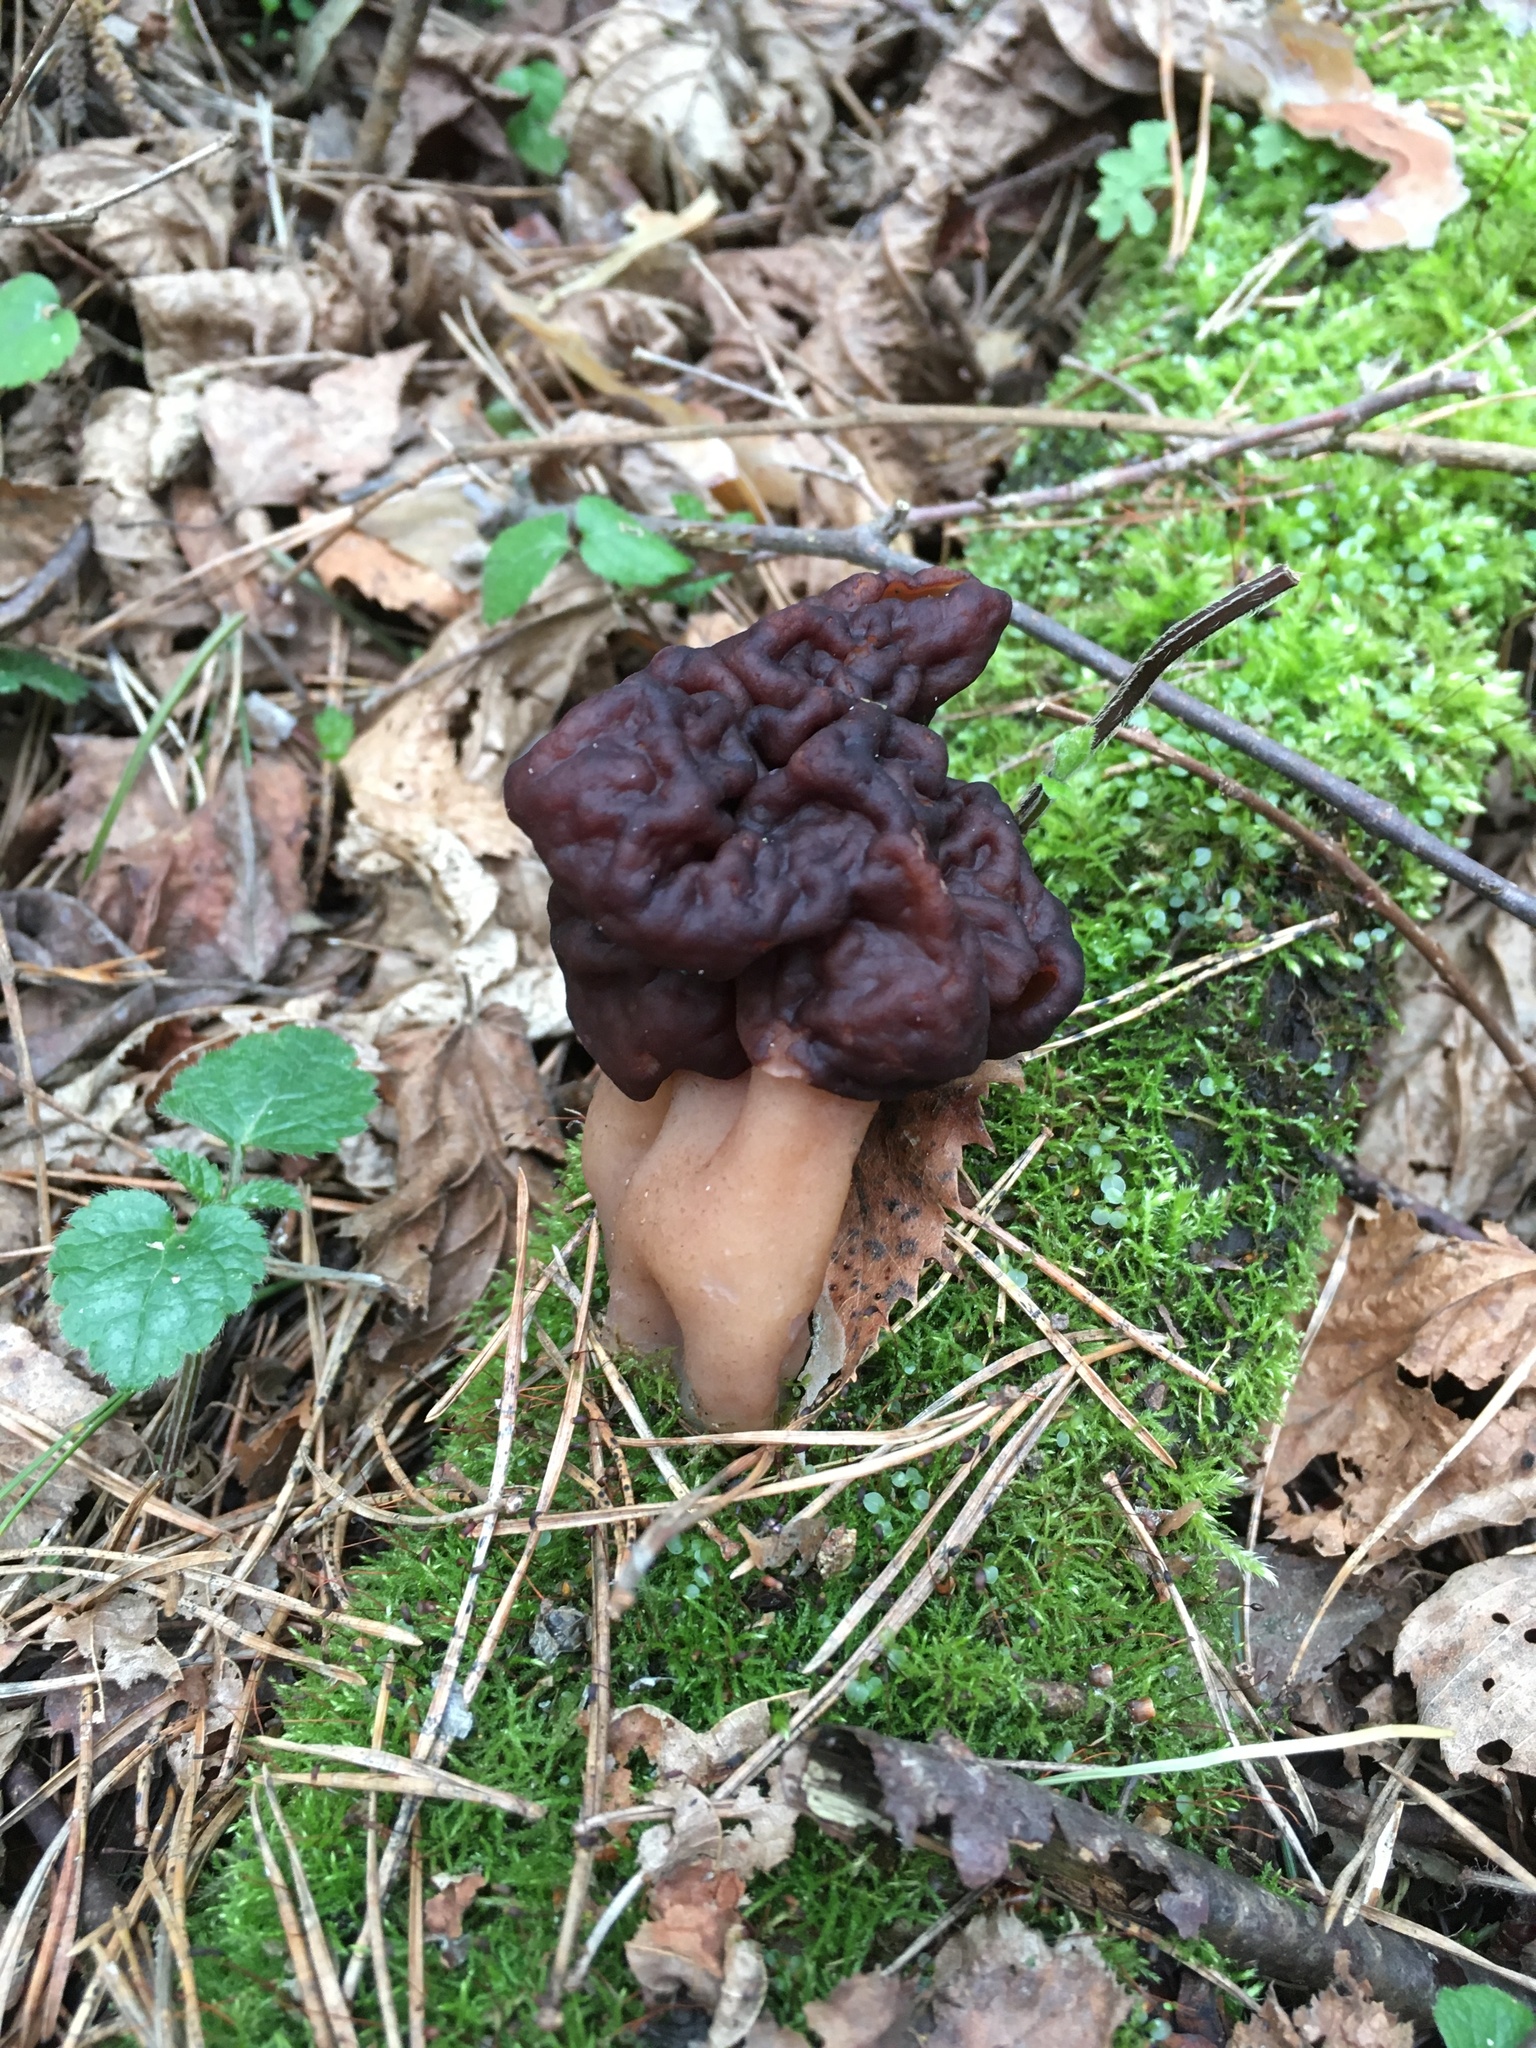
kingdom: Fungi
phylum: Ascomycota
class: Pezizomycetes
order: Pezizales
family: Discinaceae
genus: Gyromitra
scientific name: Gyromitra esculenta
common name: False morel
